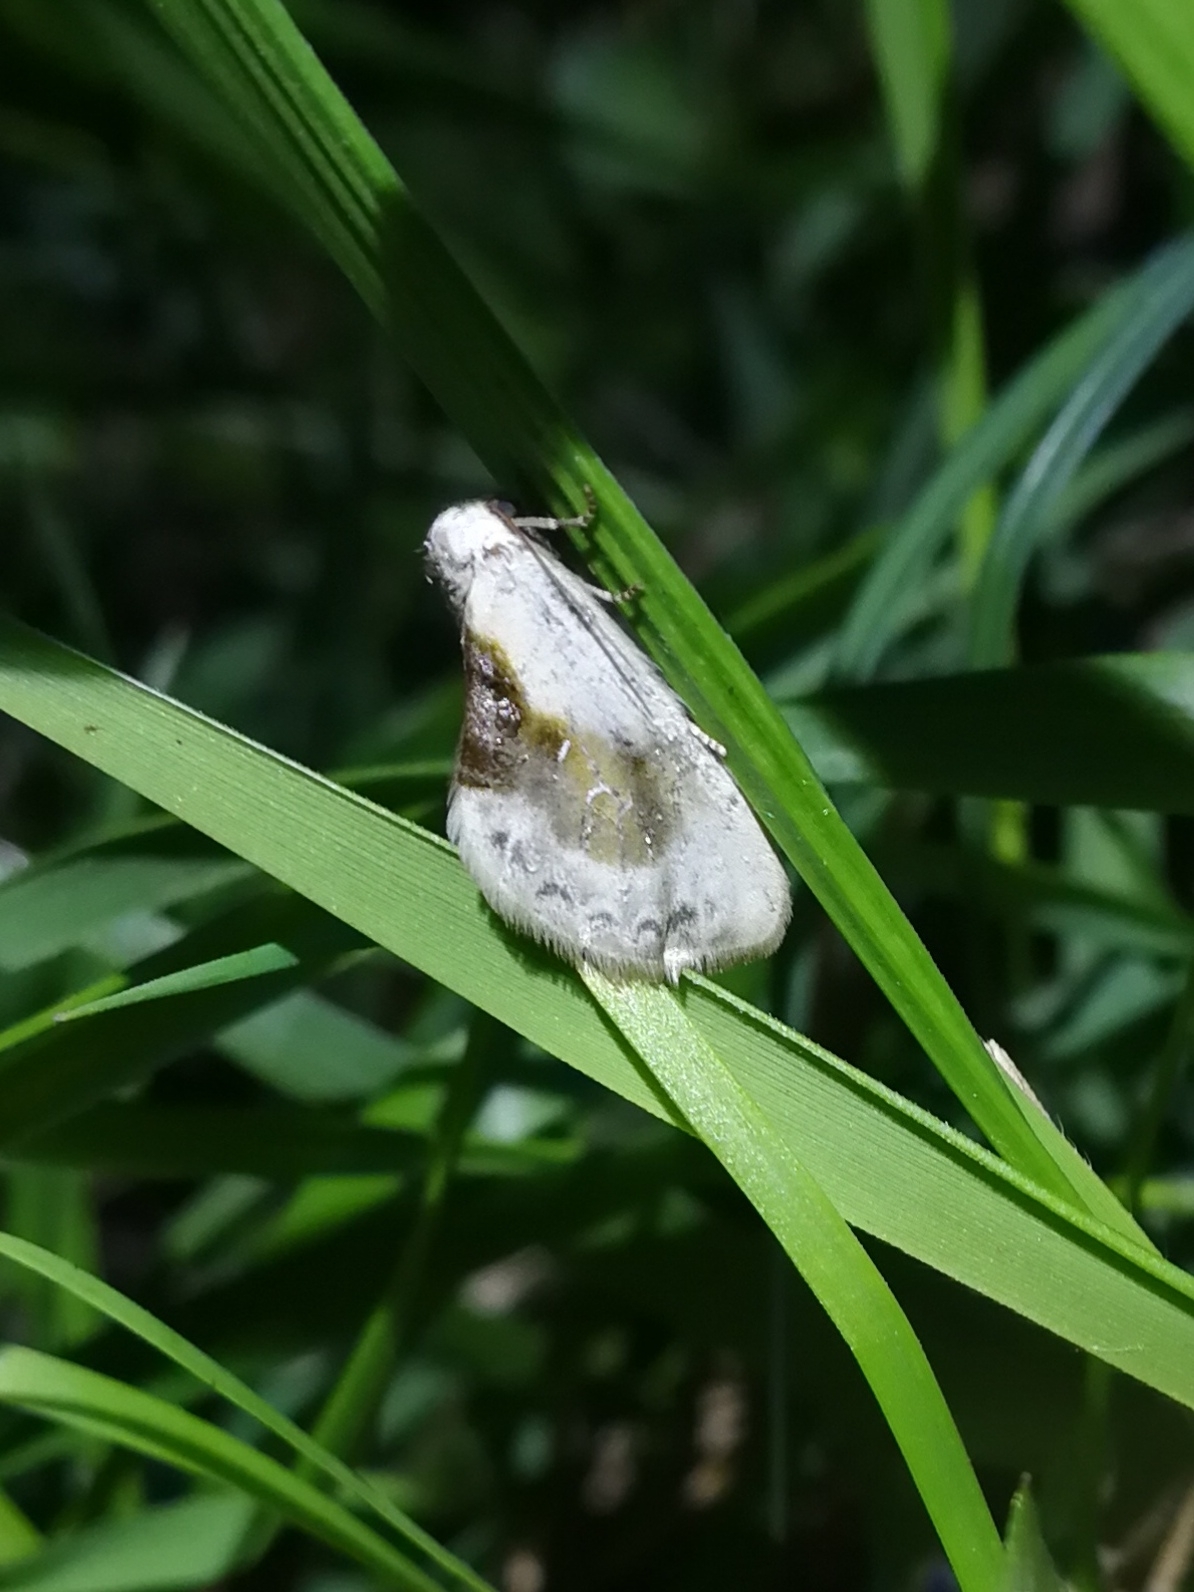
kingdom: Animalia
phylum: Arthropoda
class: Insecta
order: Lepidoptera
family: Drepanidae
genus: Cilix
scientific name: Cilix glaucata
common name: Chinese character
